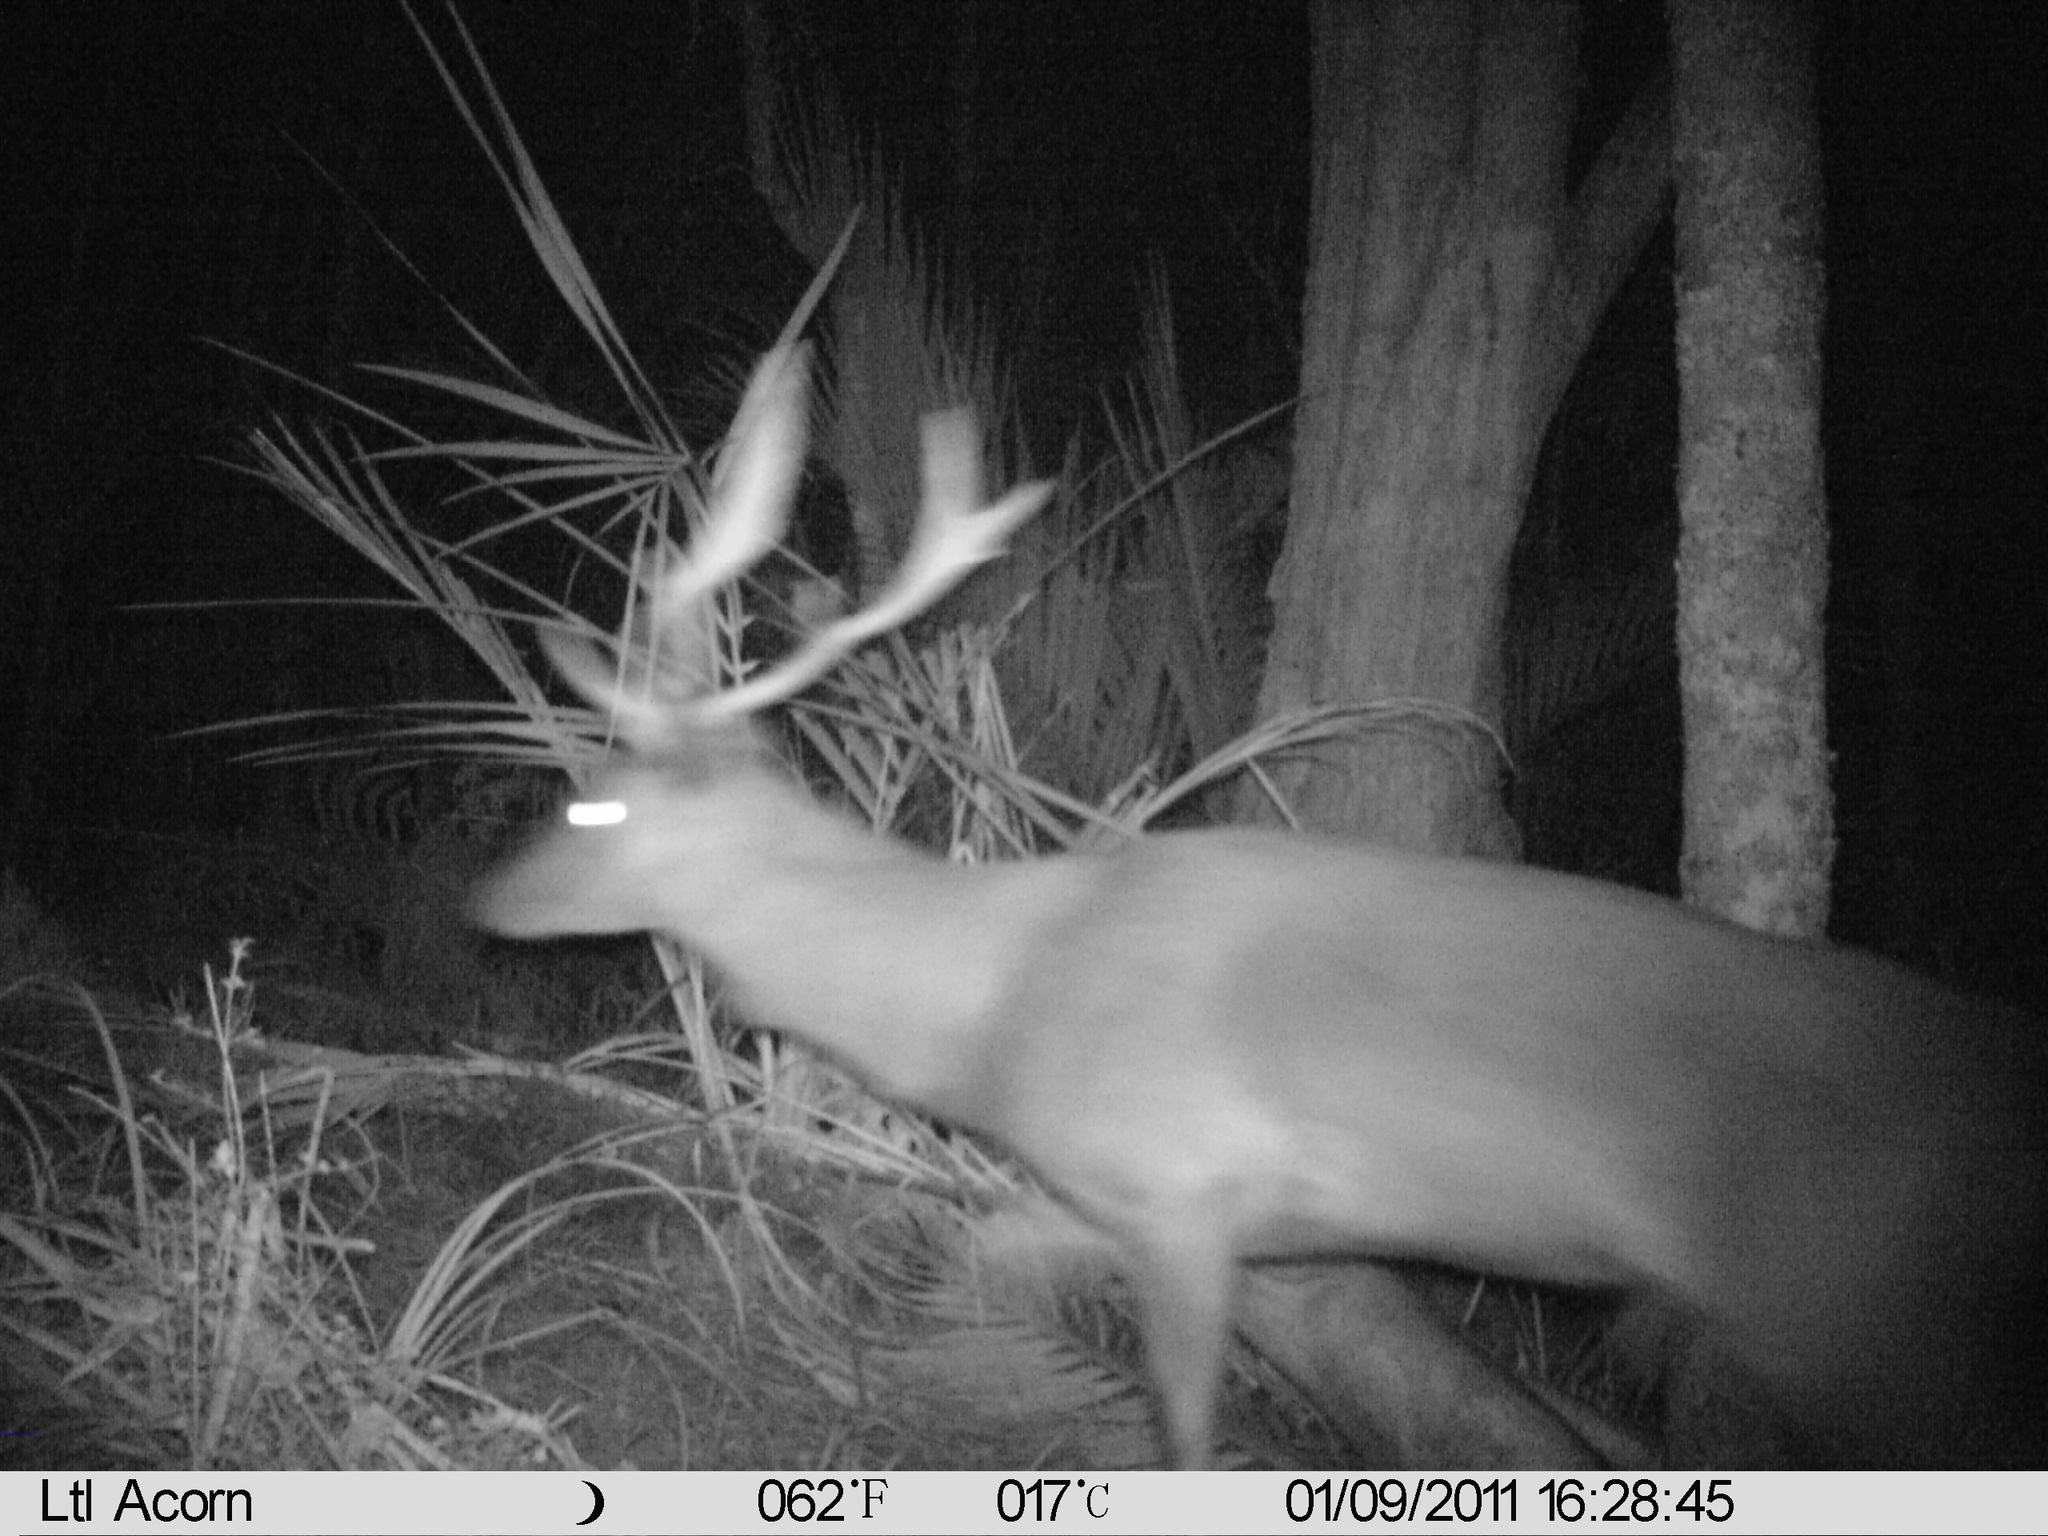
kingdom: Animalia
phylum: Chordata
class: Mammalia
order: Artiodactyla
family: Cervidae
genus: Dama
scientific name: Dama dama
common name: Fallow deer
